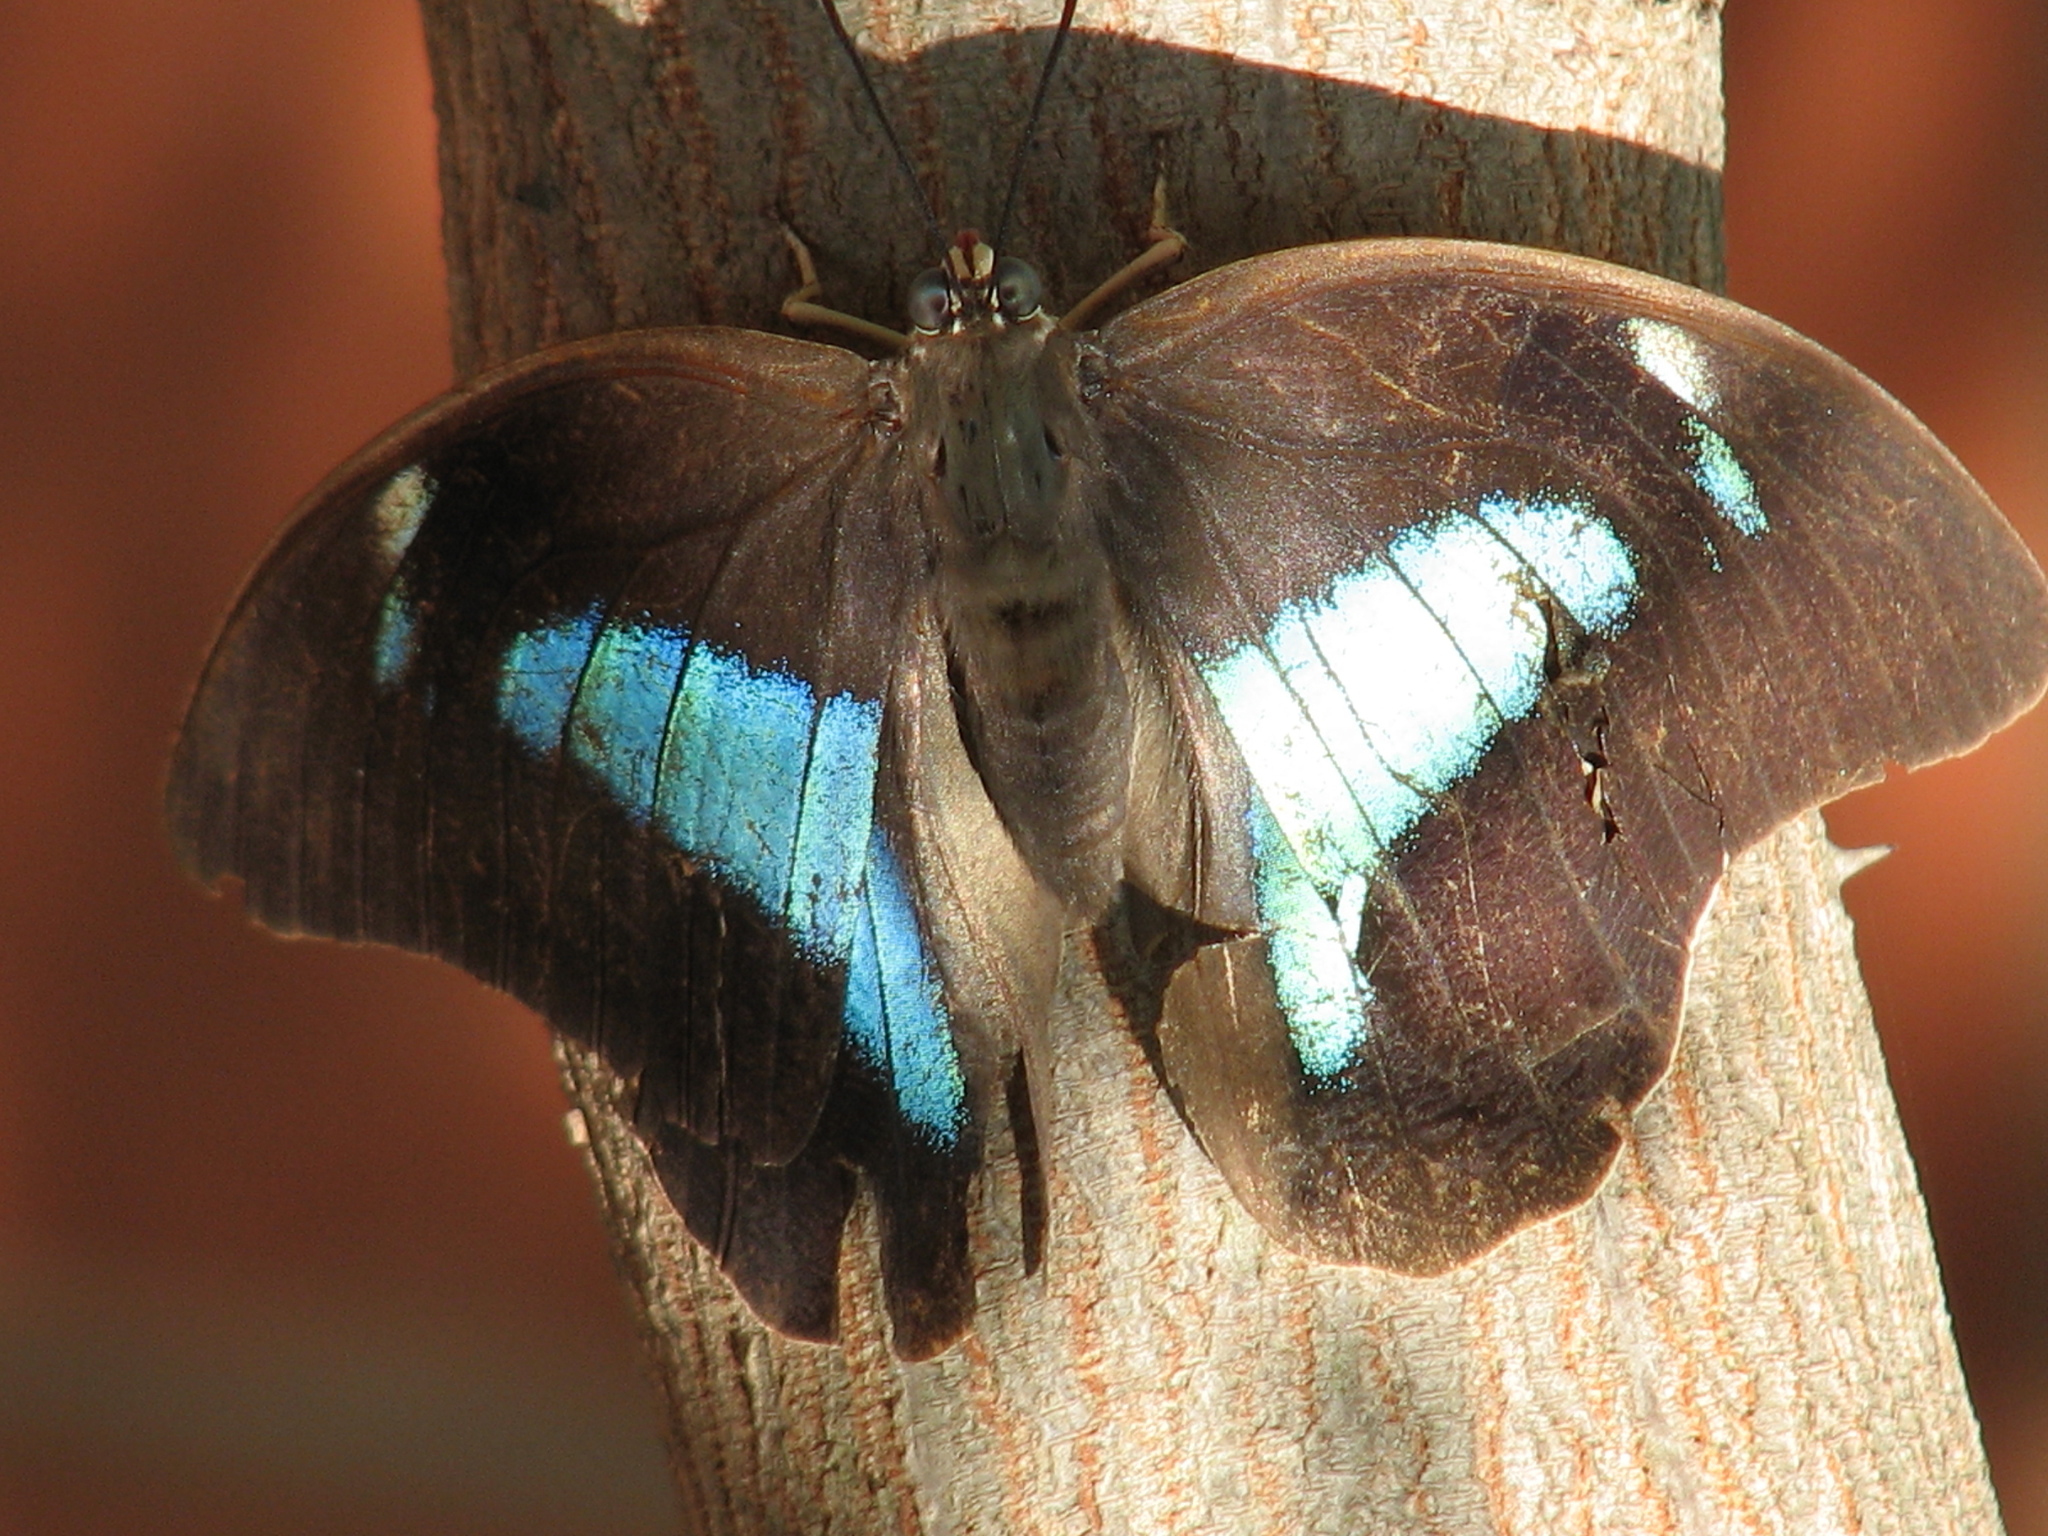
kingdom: Animalia
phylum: Arthropoda
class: Insecta
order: Lepidoptera
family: Nymphalidae
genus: Prepona
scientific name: Prepona demophon
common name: One-spotted prepona
